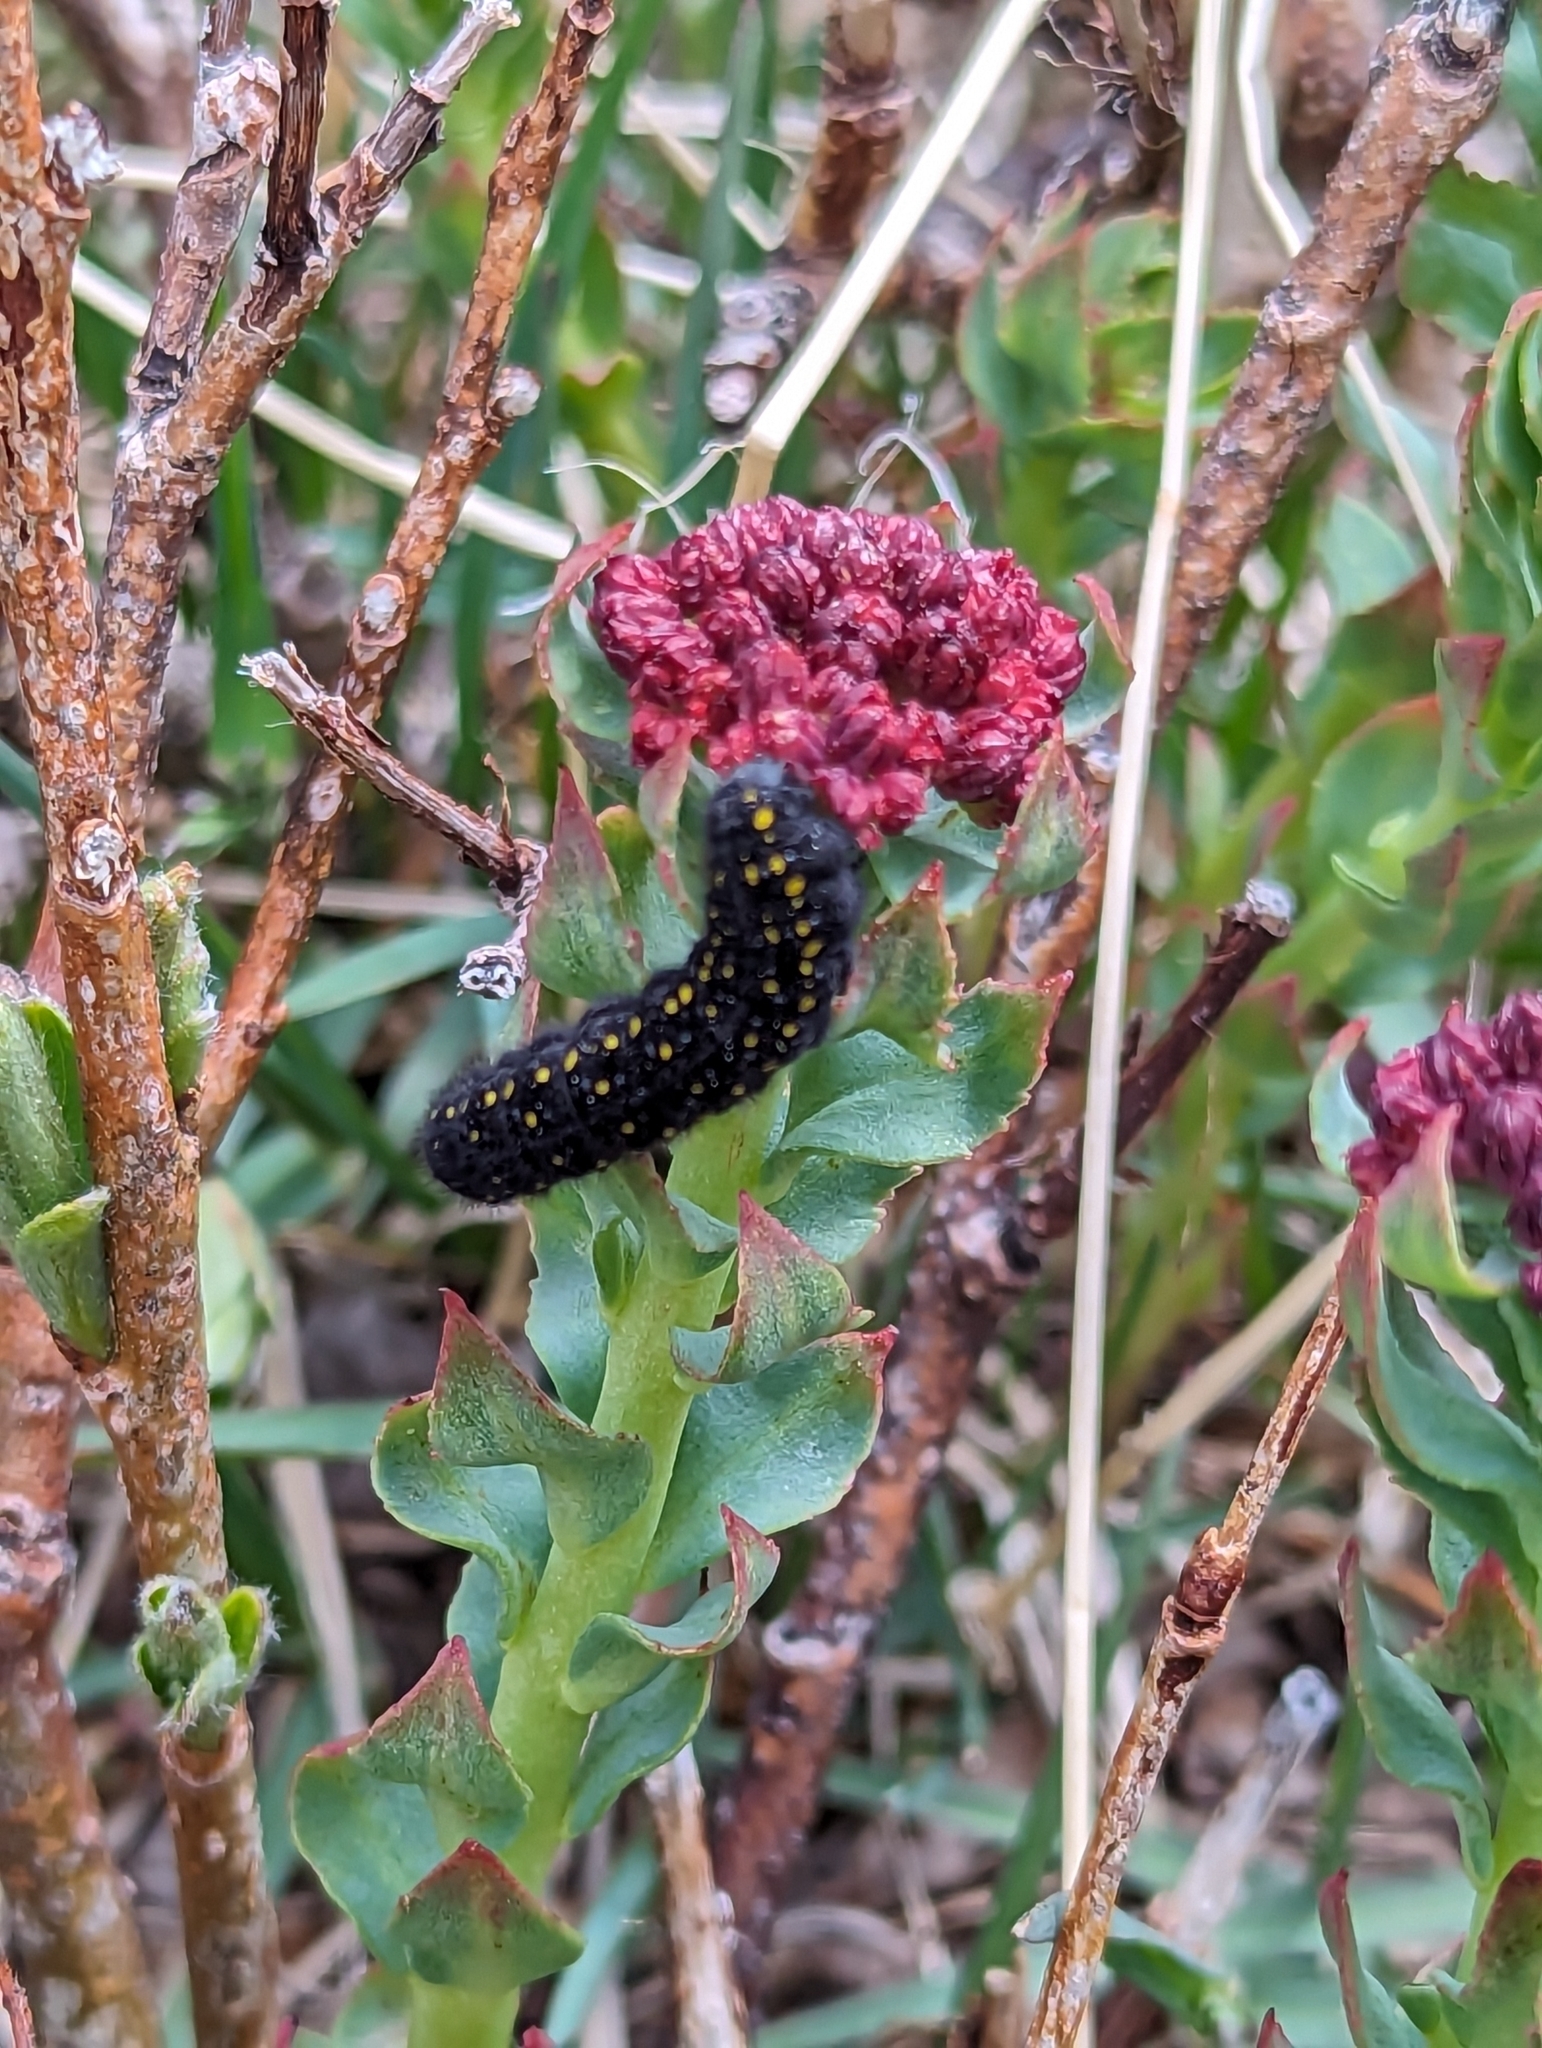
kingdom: Animalia
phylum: Arthropoda
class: Insecta
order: Lepidoptera
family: Papilionidae
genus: Parnassius
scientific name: Parnassius smintheus
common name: Mountain parnassian
